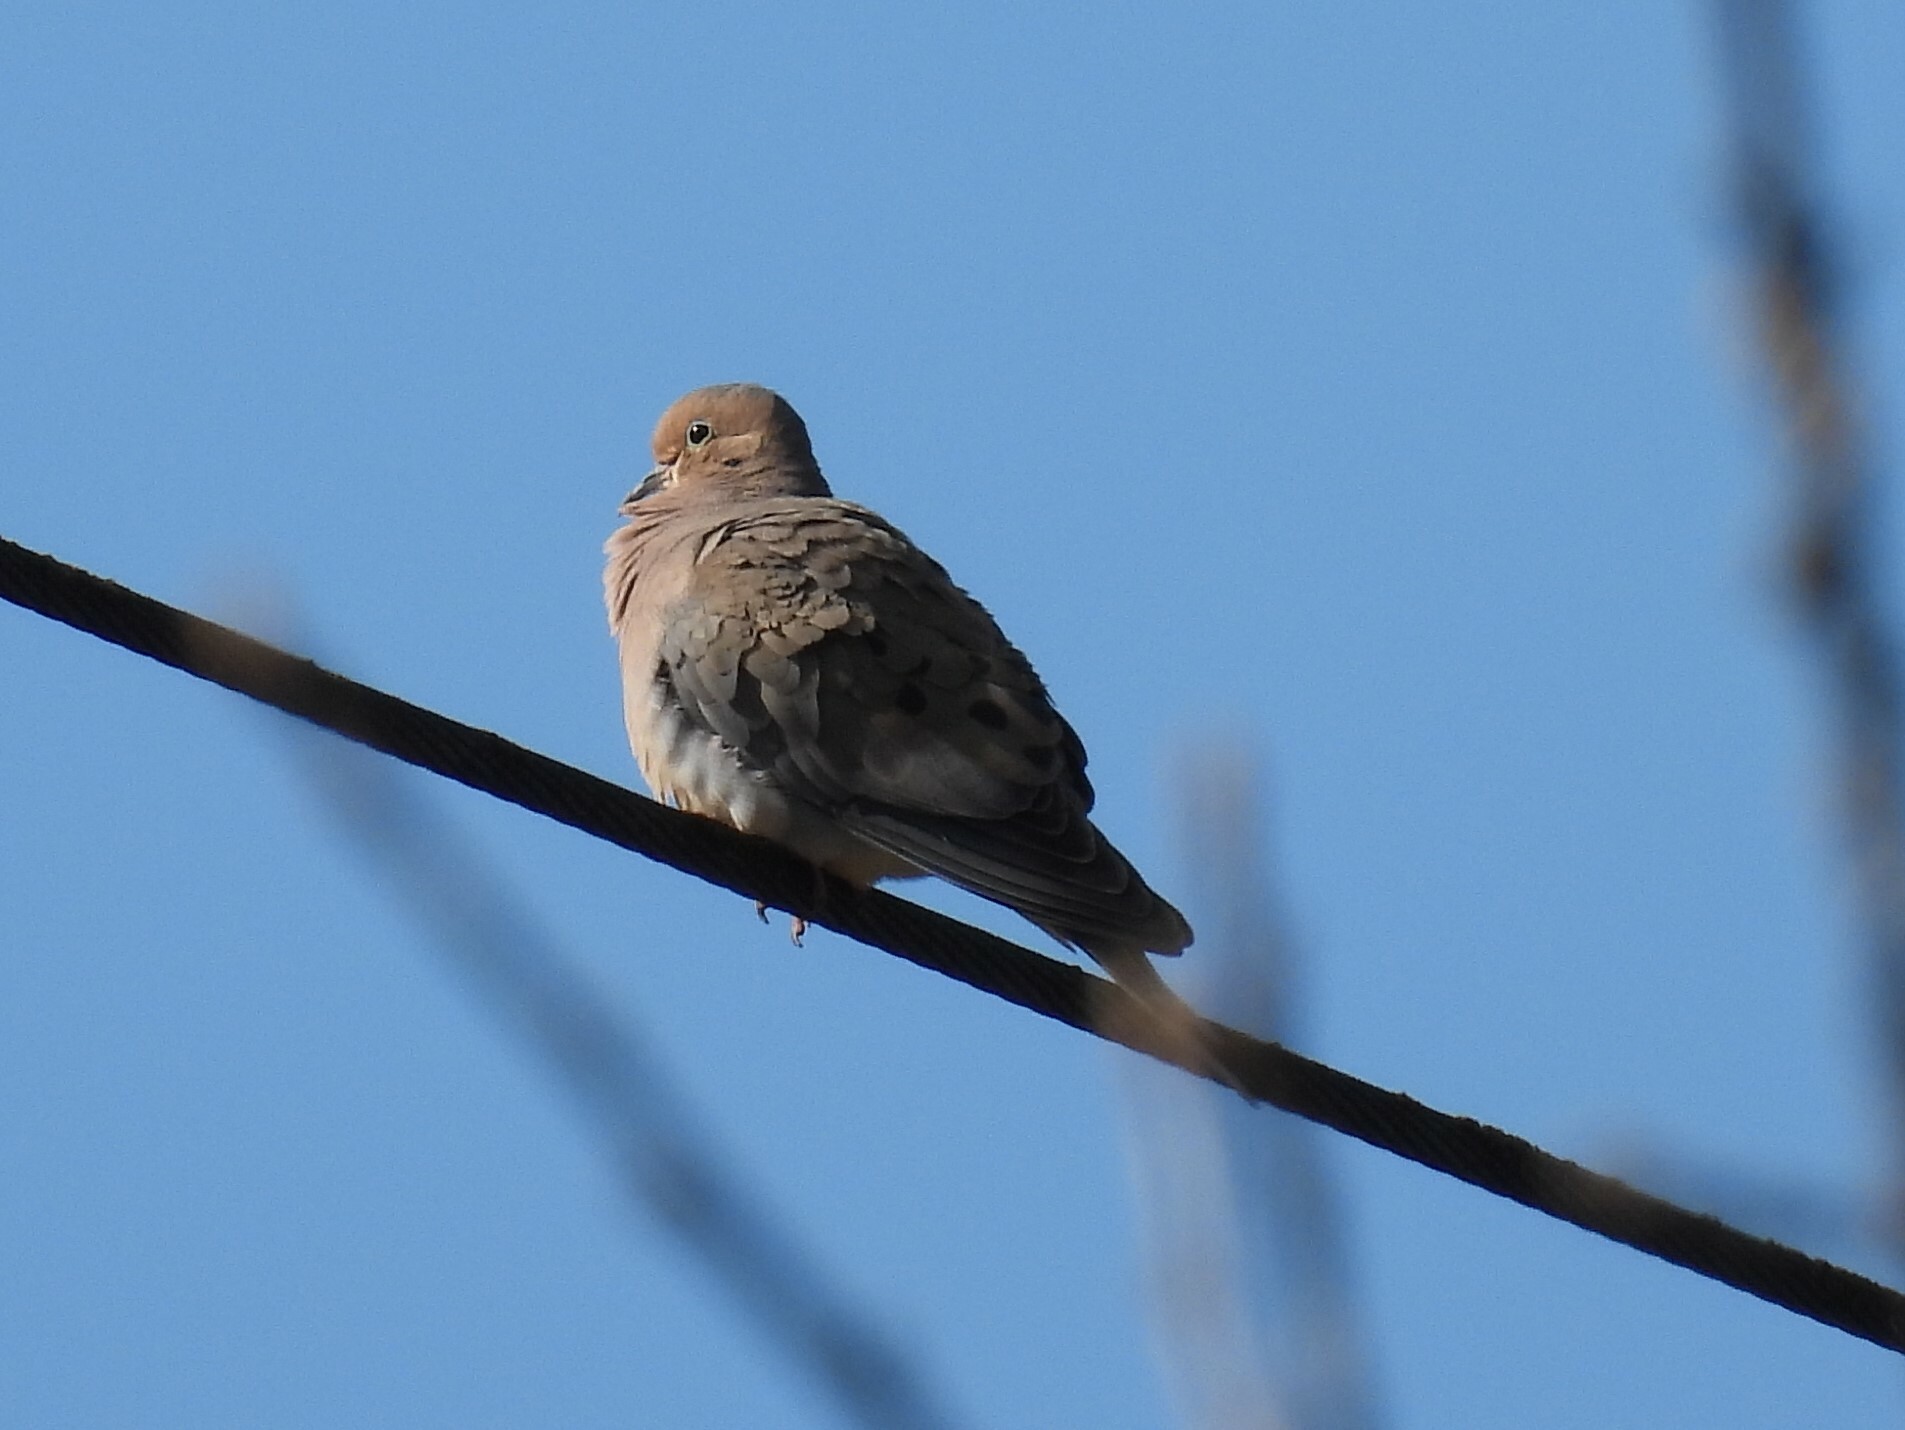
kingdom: Animalia
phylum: Chordata
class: Aves
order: Columbiformes
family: Columbidae
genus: Zenaida
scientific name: Zenaida macroura
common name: Mourning dove
